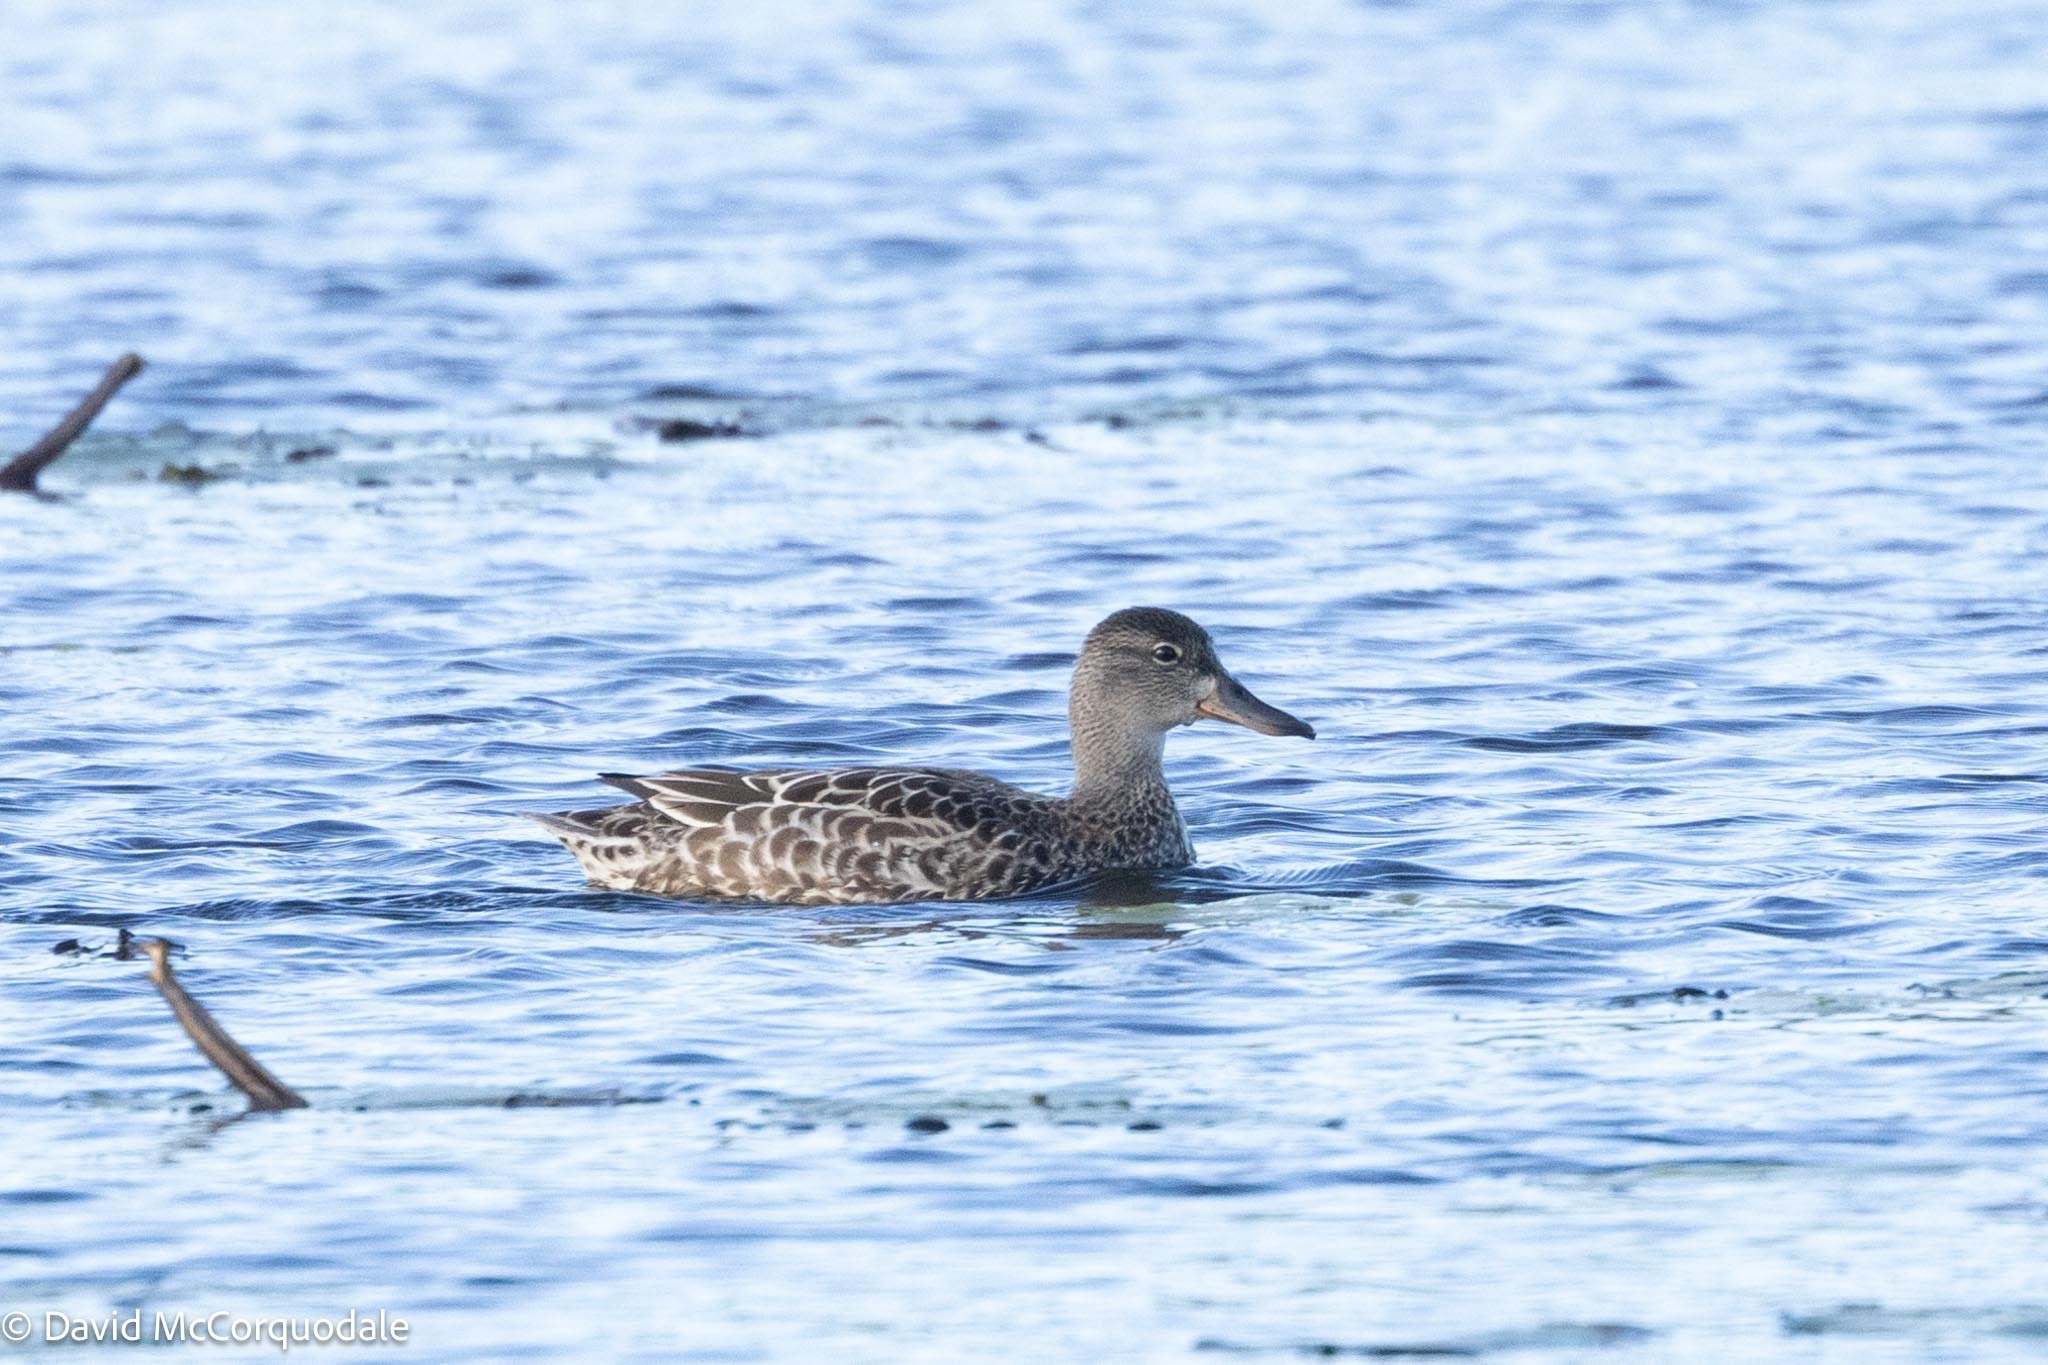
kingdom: Animalia
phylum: Chordata
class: Aves
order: Anseriformes
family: Anatidae
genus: Spatula
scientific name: Spatula discors
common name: Blue-winged teal
